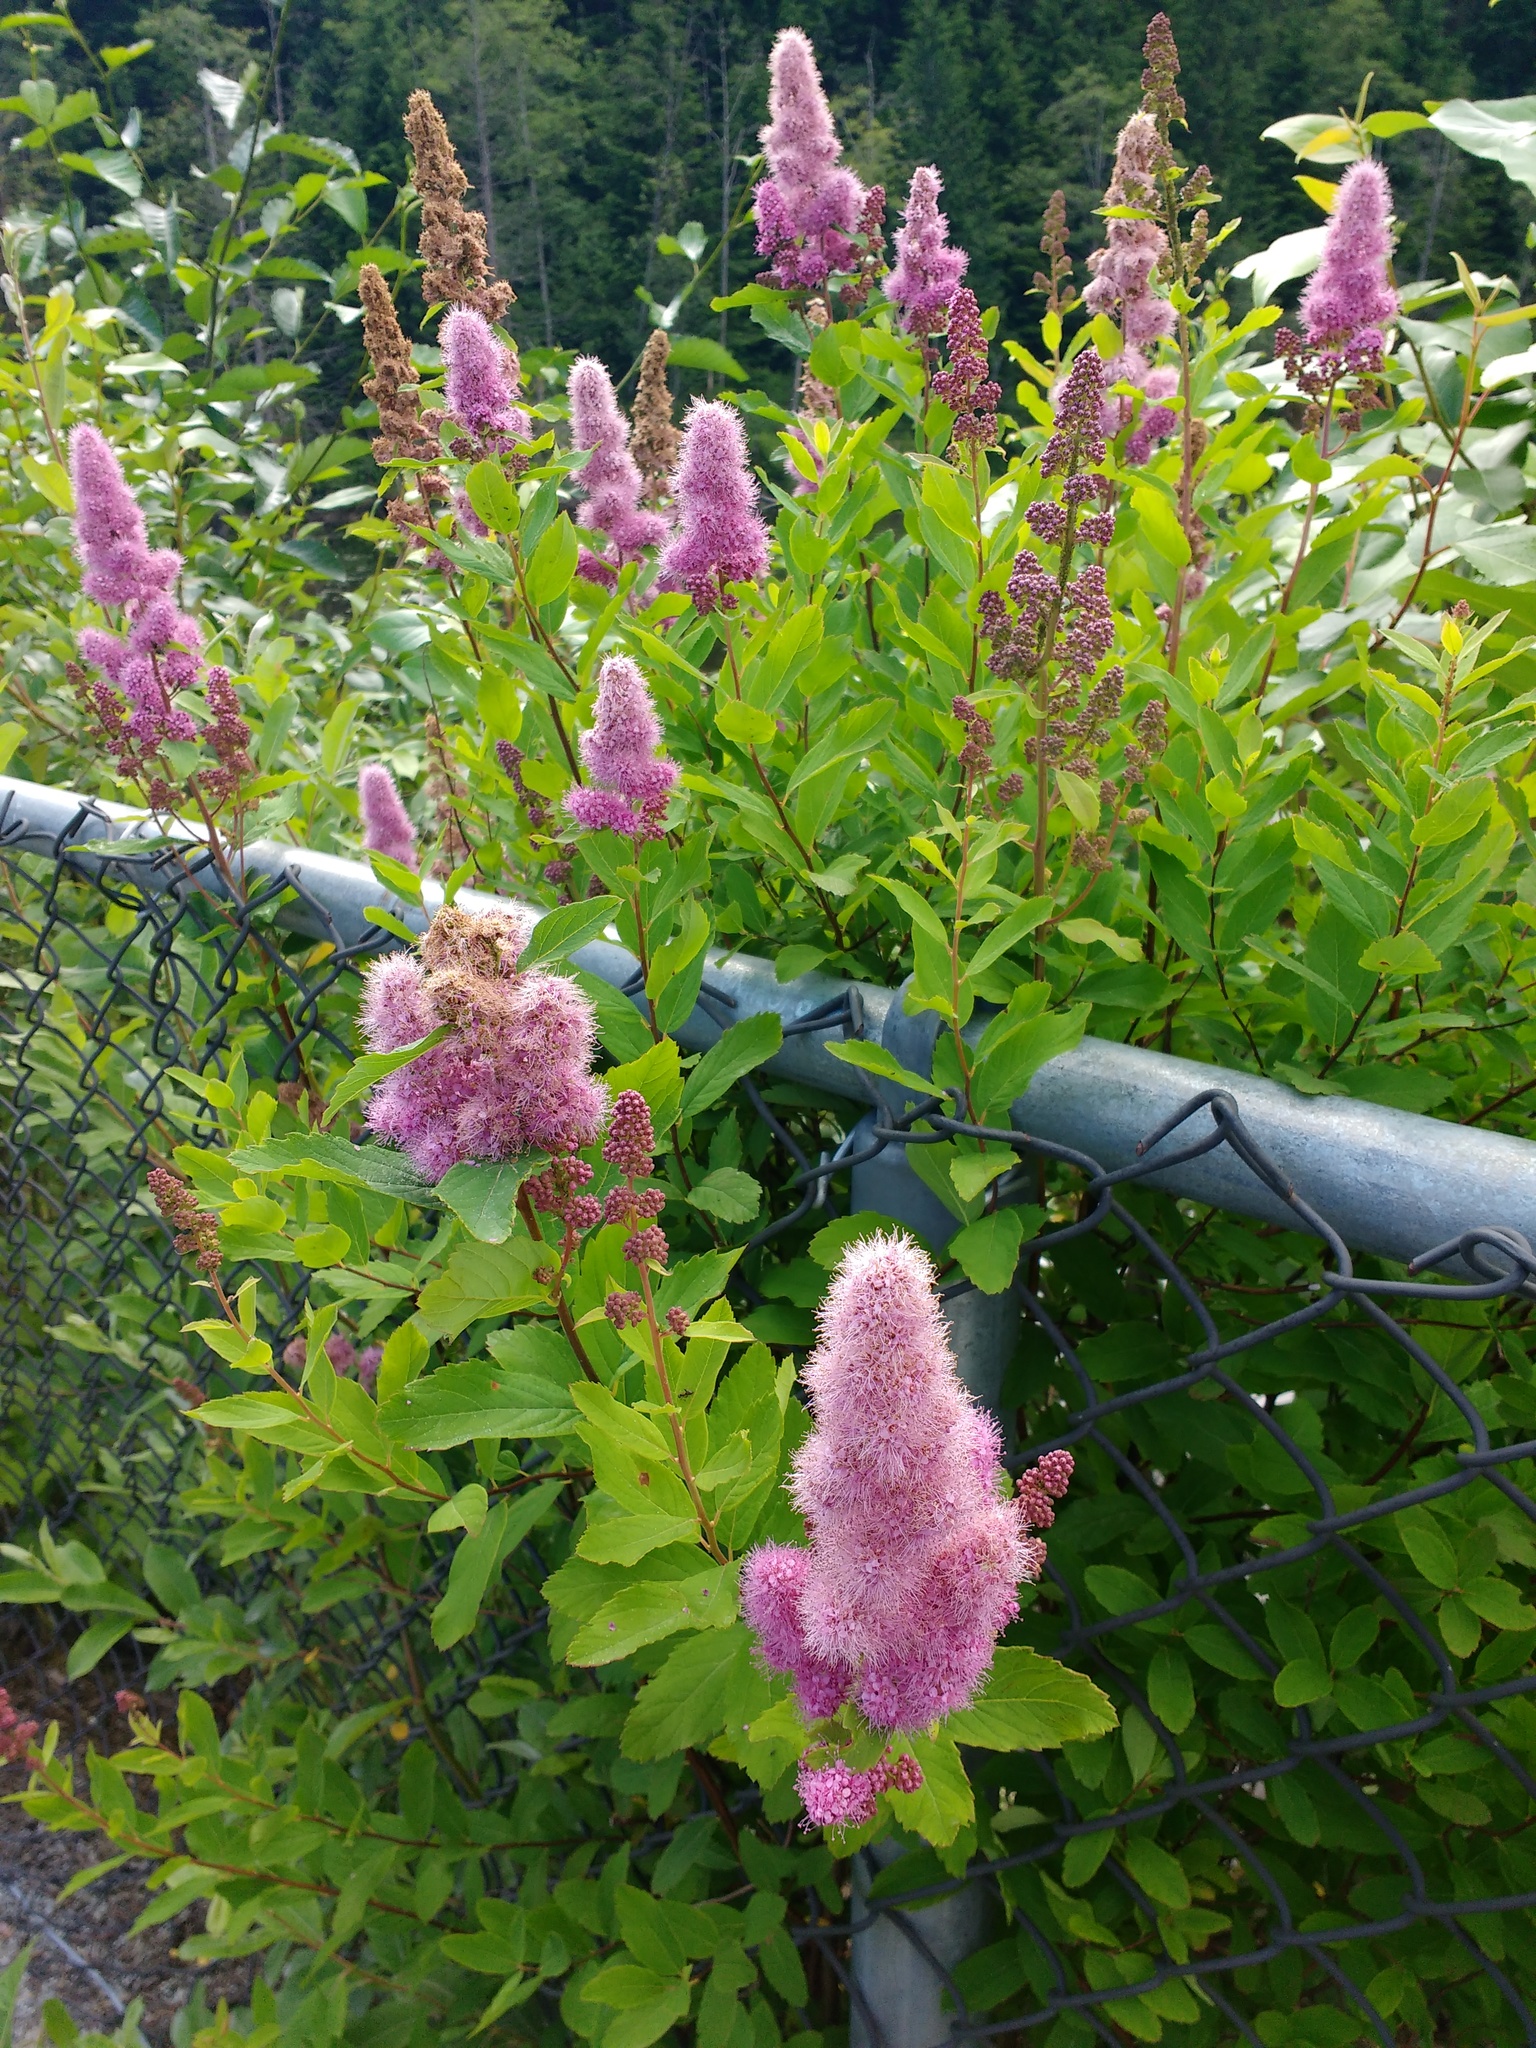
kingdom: Plantae
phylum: Tracheophyta
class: Magnoliopsida
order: Rosales
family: Rosaceae
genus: Spiraea
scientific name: Spiraea douglasii
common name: Steeplebush
